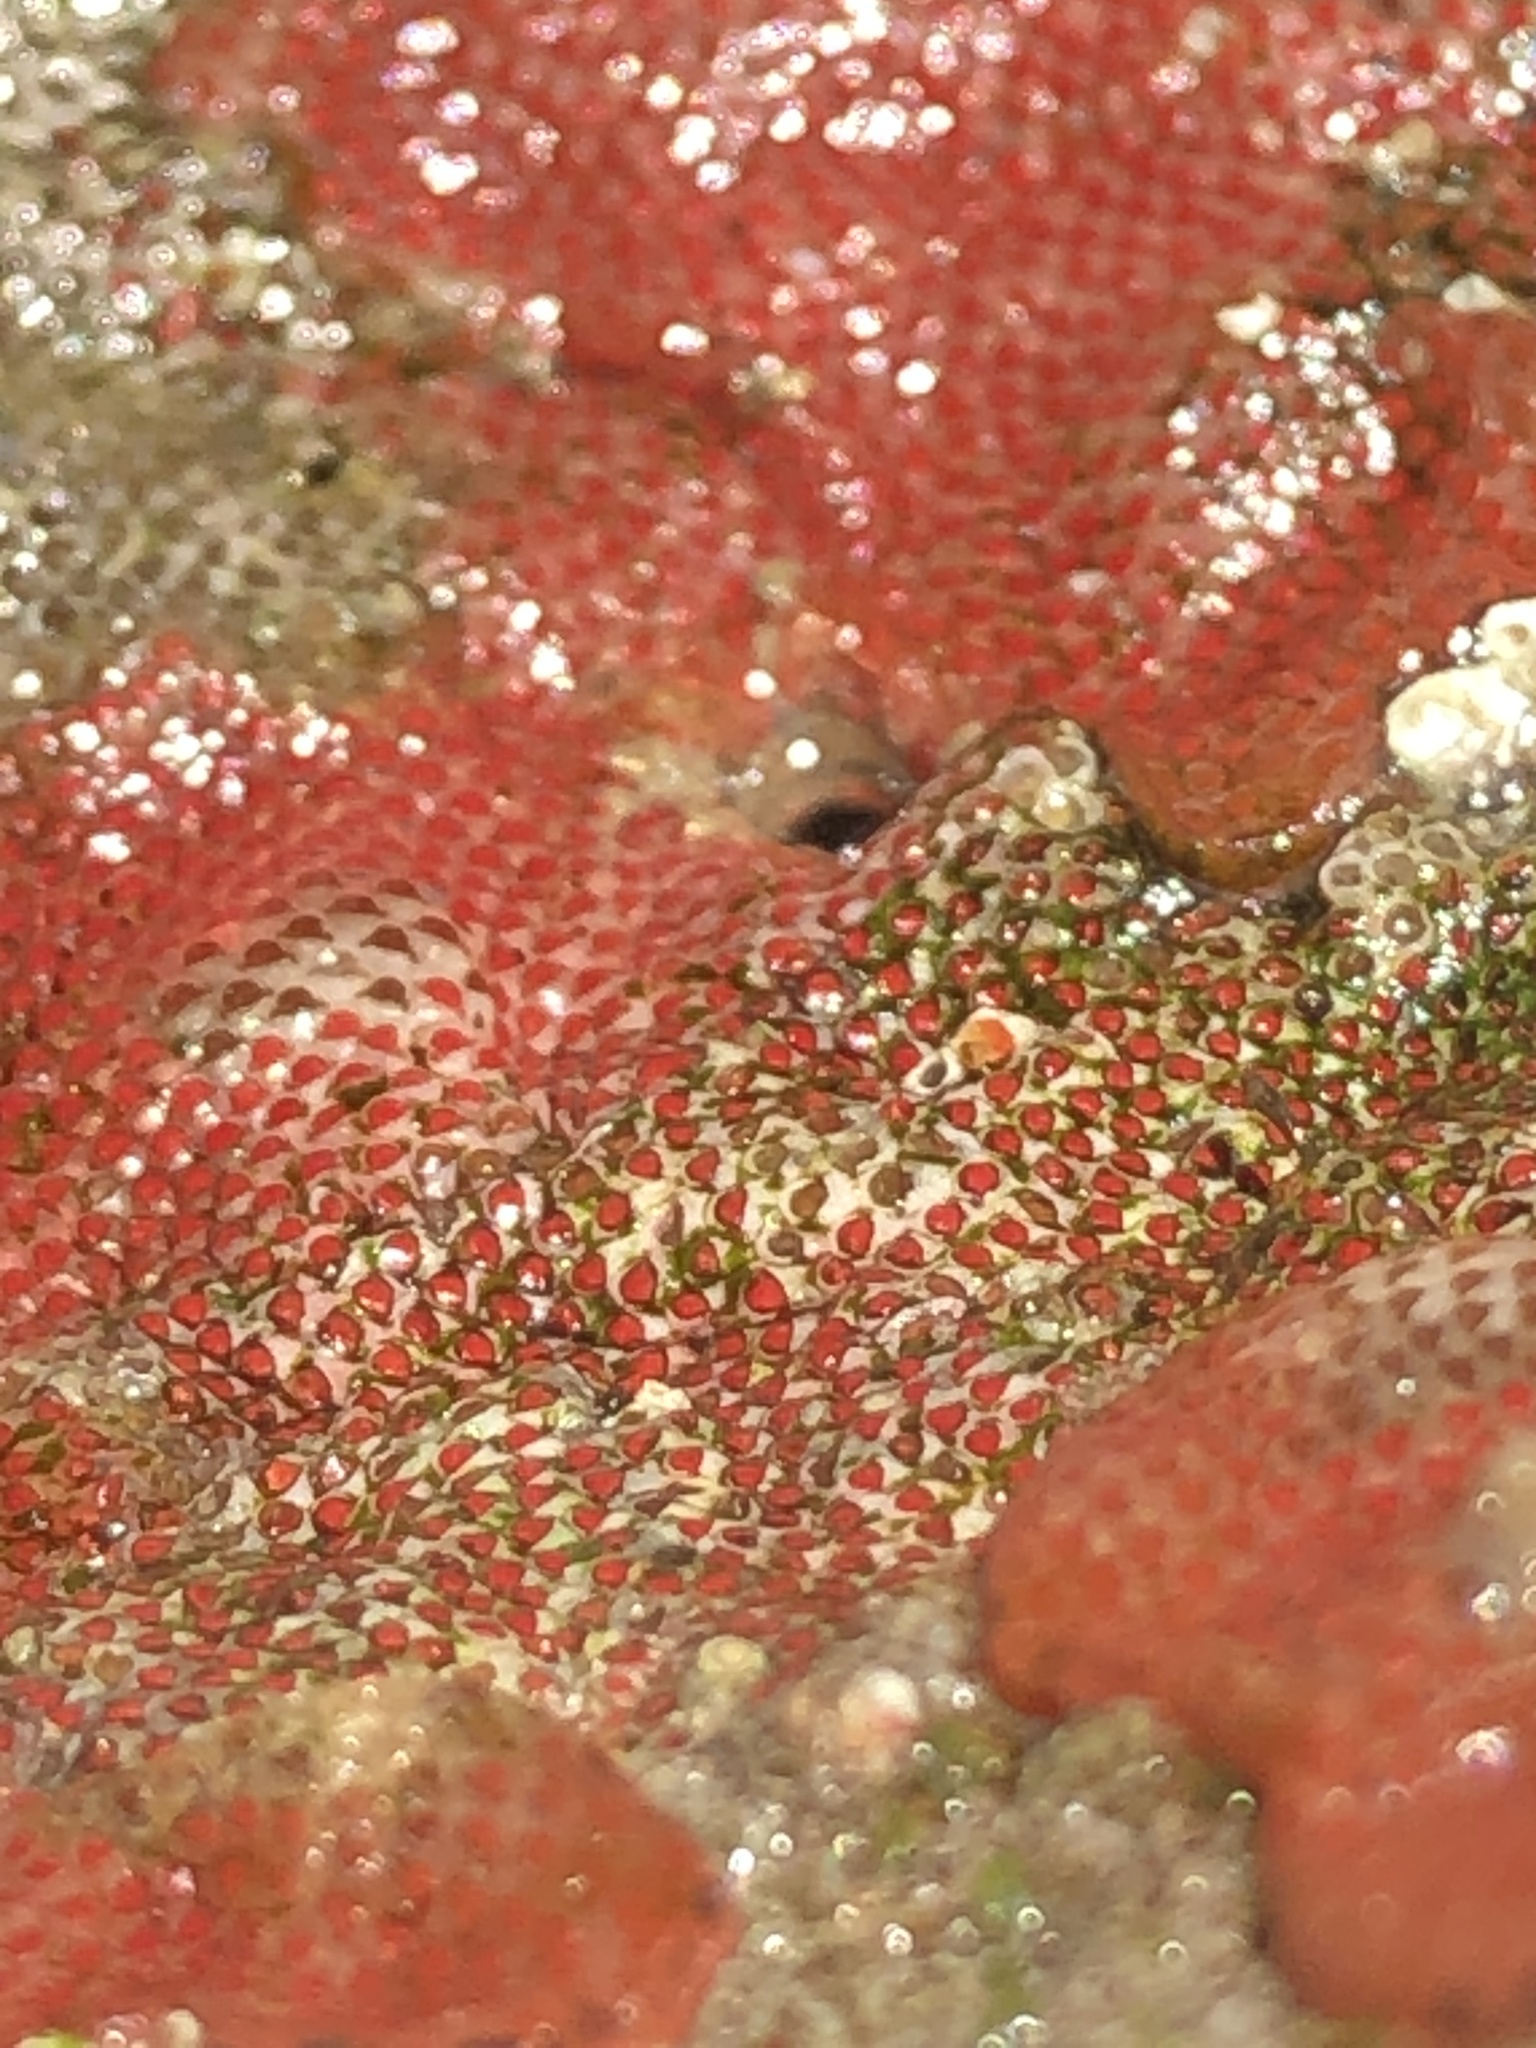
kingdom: Animalia
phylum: Bryozoa
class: Gymnolaemata
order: Cheilostomatida
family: Eurystomellidae
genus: Integripelta
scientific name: Integripelta bilabiata
